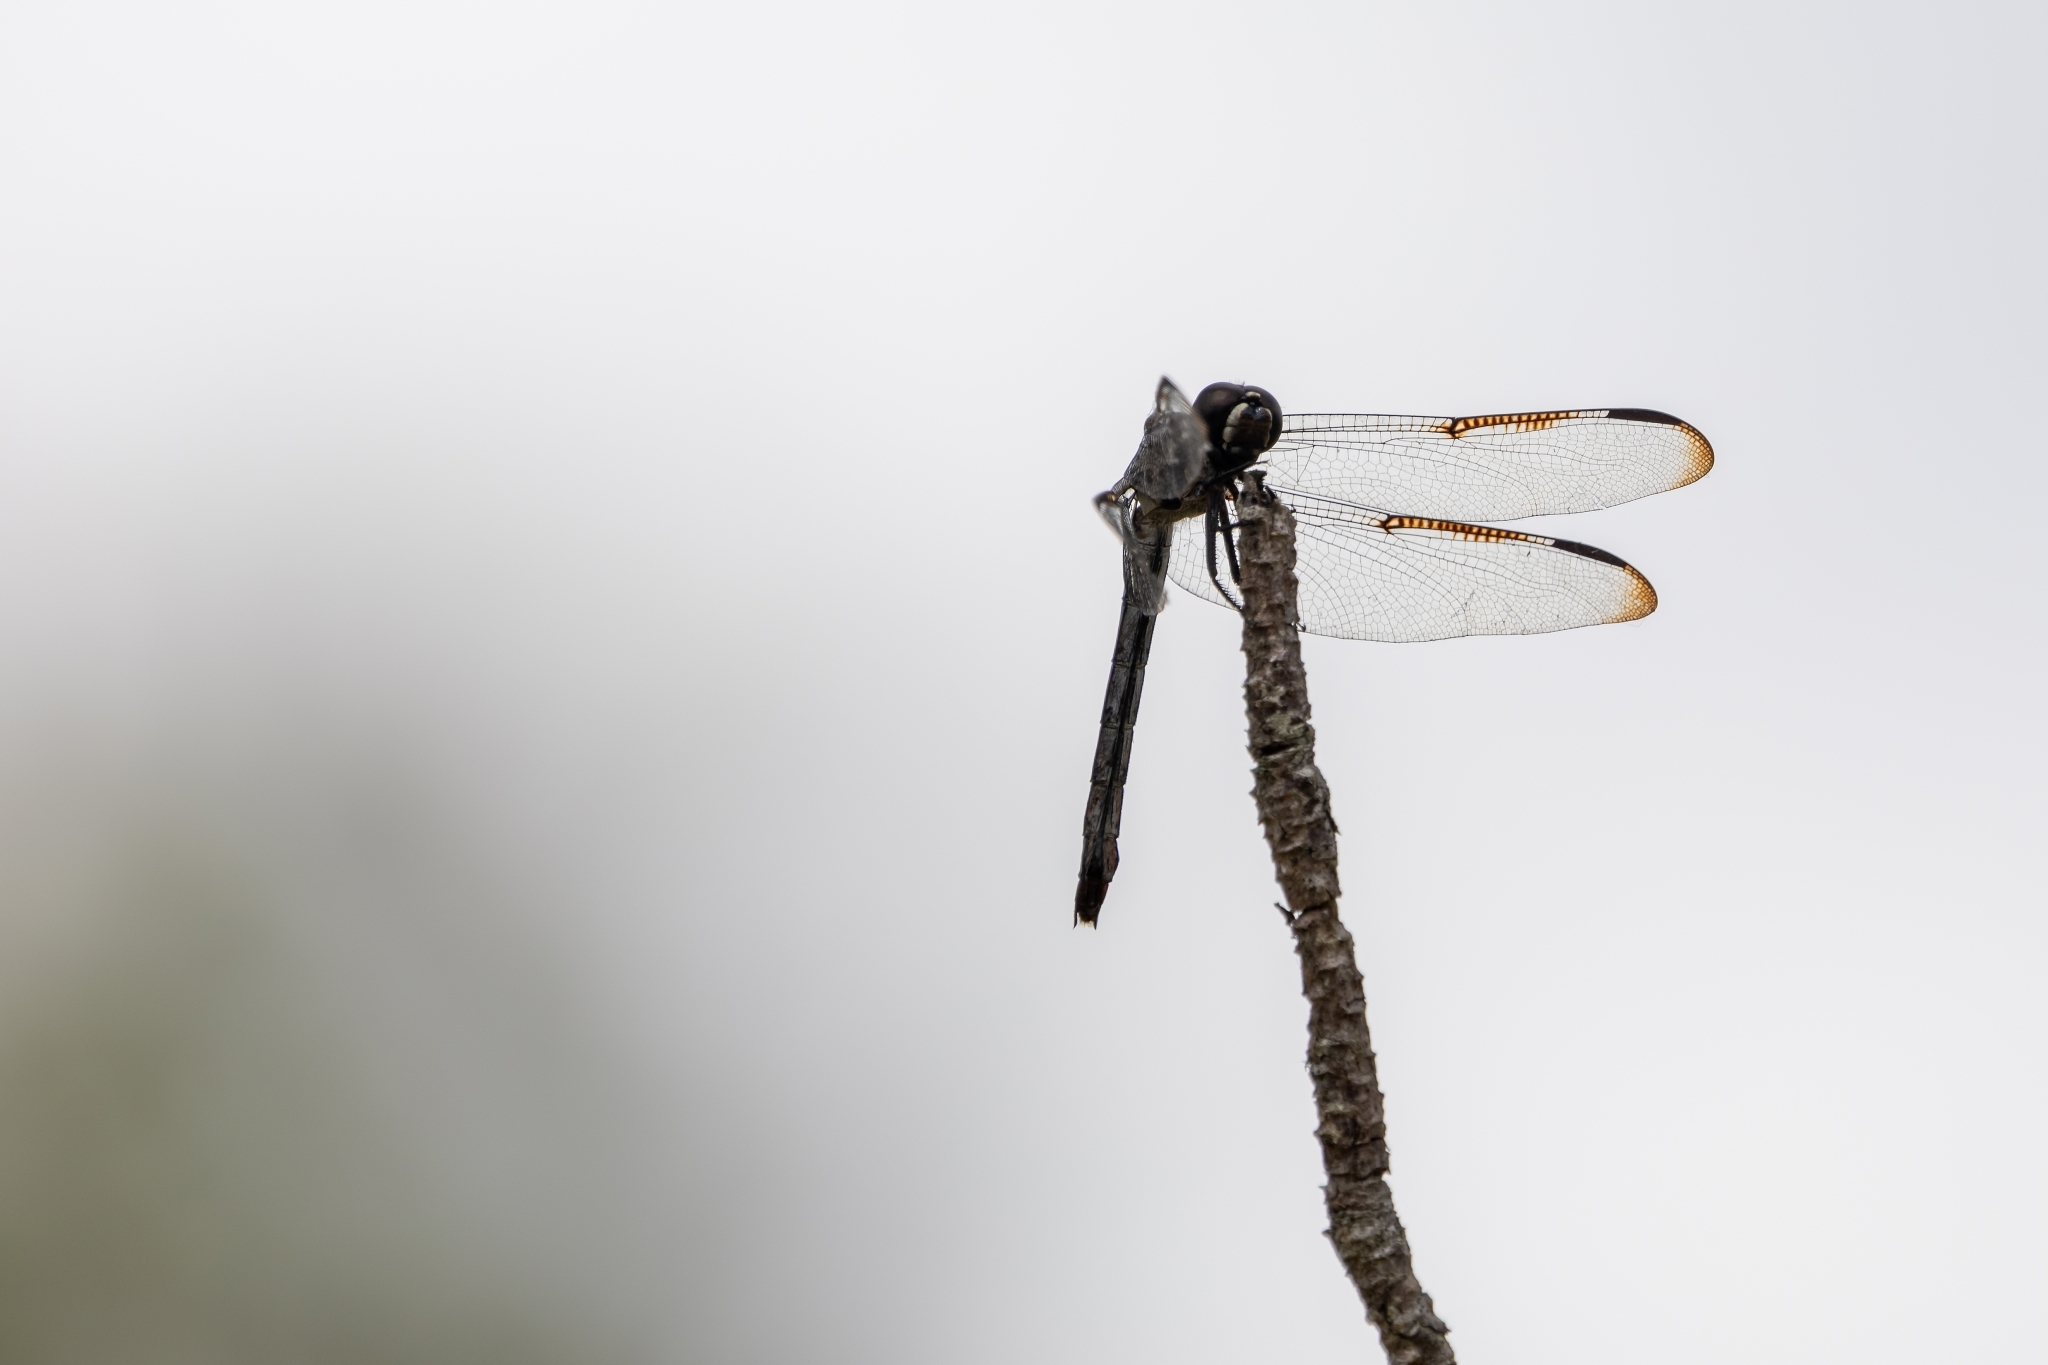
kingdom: Animalia
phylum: Arthropoda
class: Insecta
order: Odonata
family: Libellulidae
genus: Libellula
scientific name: Libellula axilena
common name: Bar-winged skimmer
